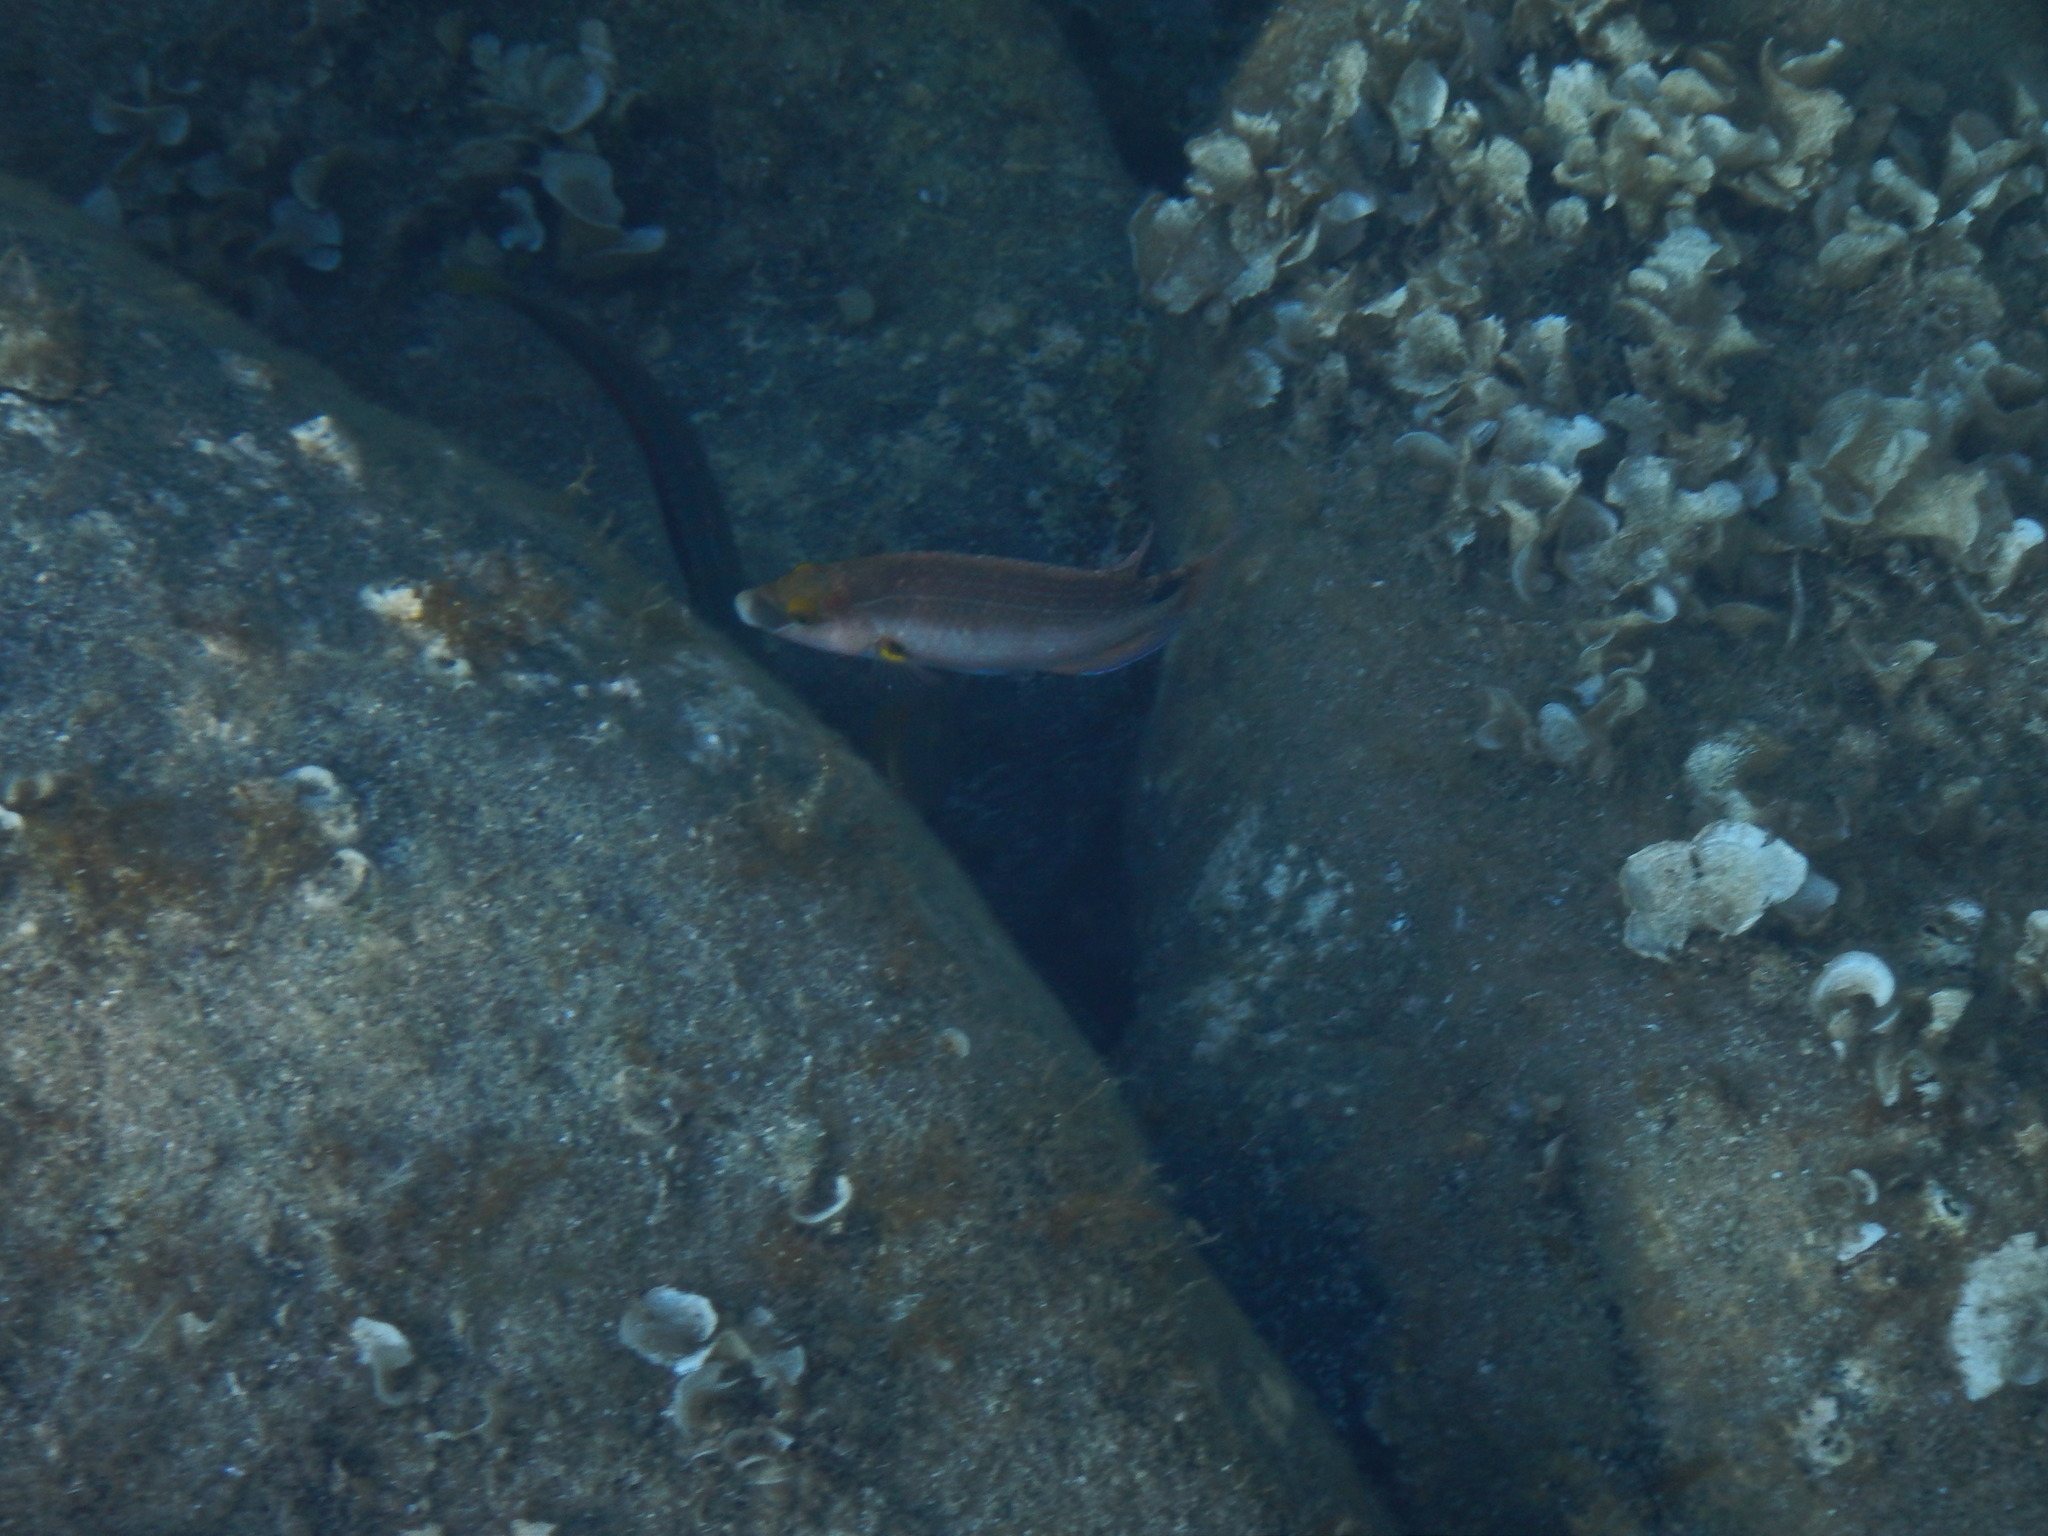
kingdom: Animalia
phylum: Chordata
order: Perciformes
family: Labridae
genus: Symphodus
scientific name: Symphodus mediterraneus
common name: Axillary wrasse
